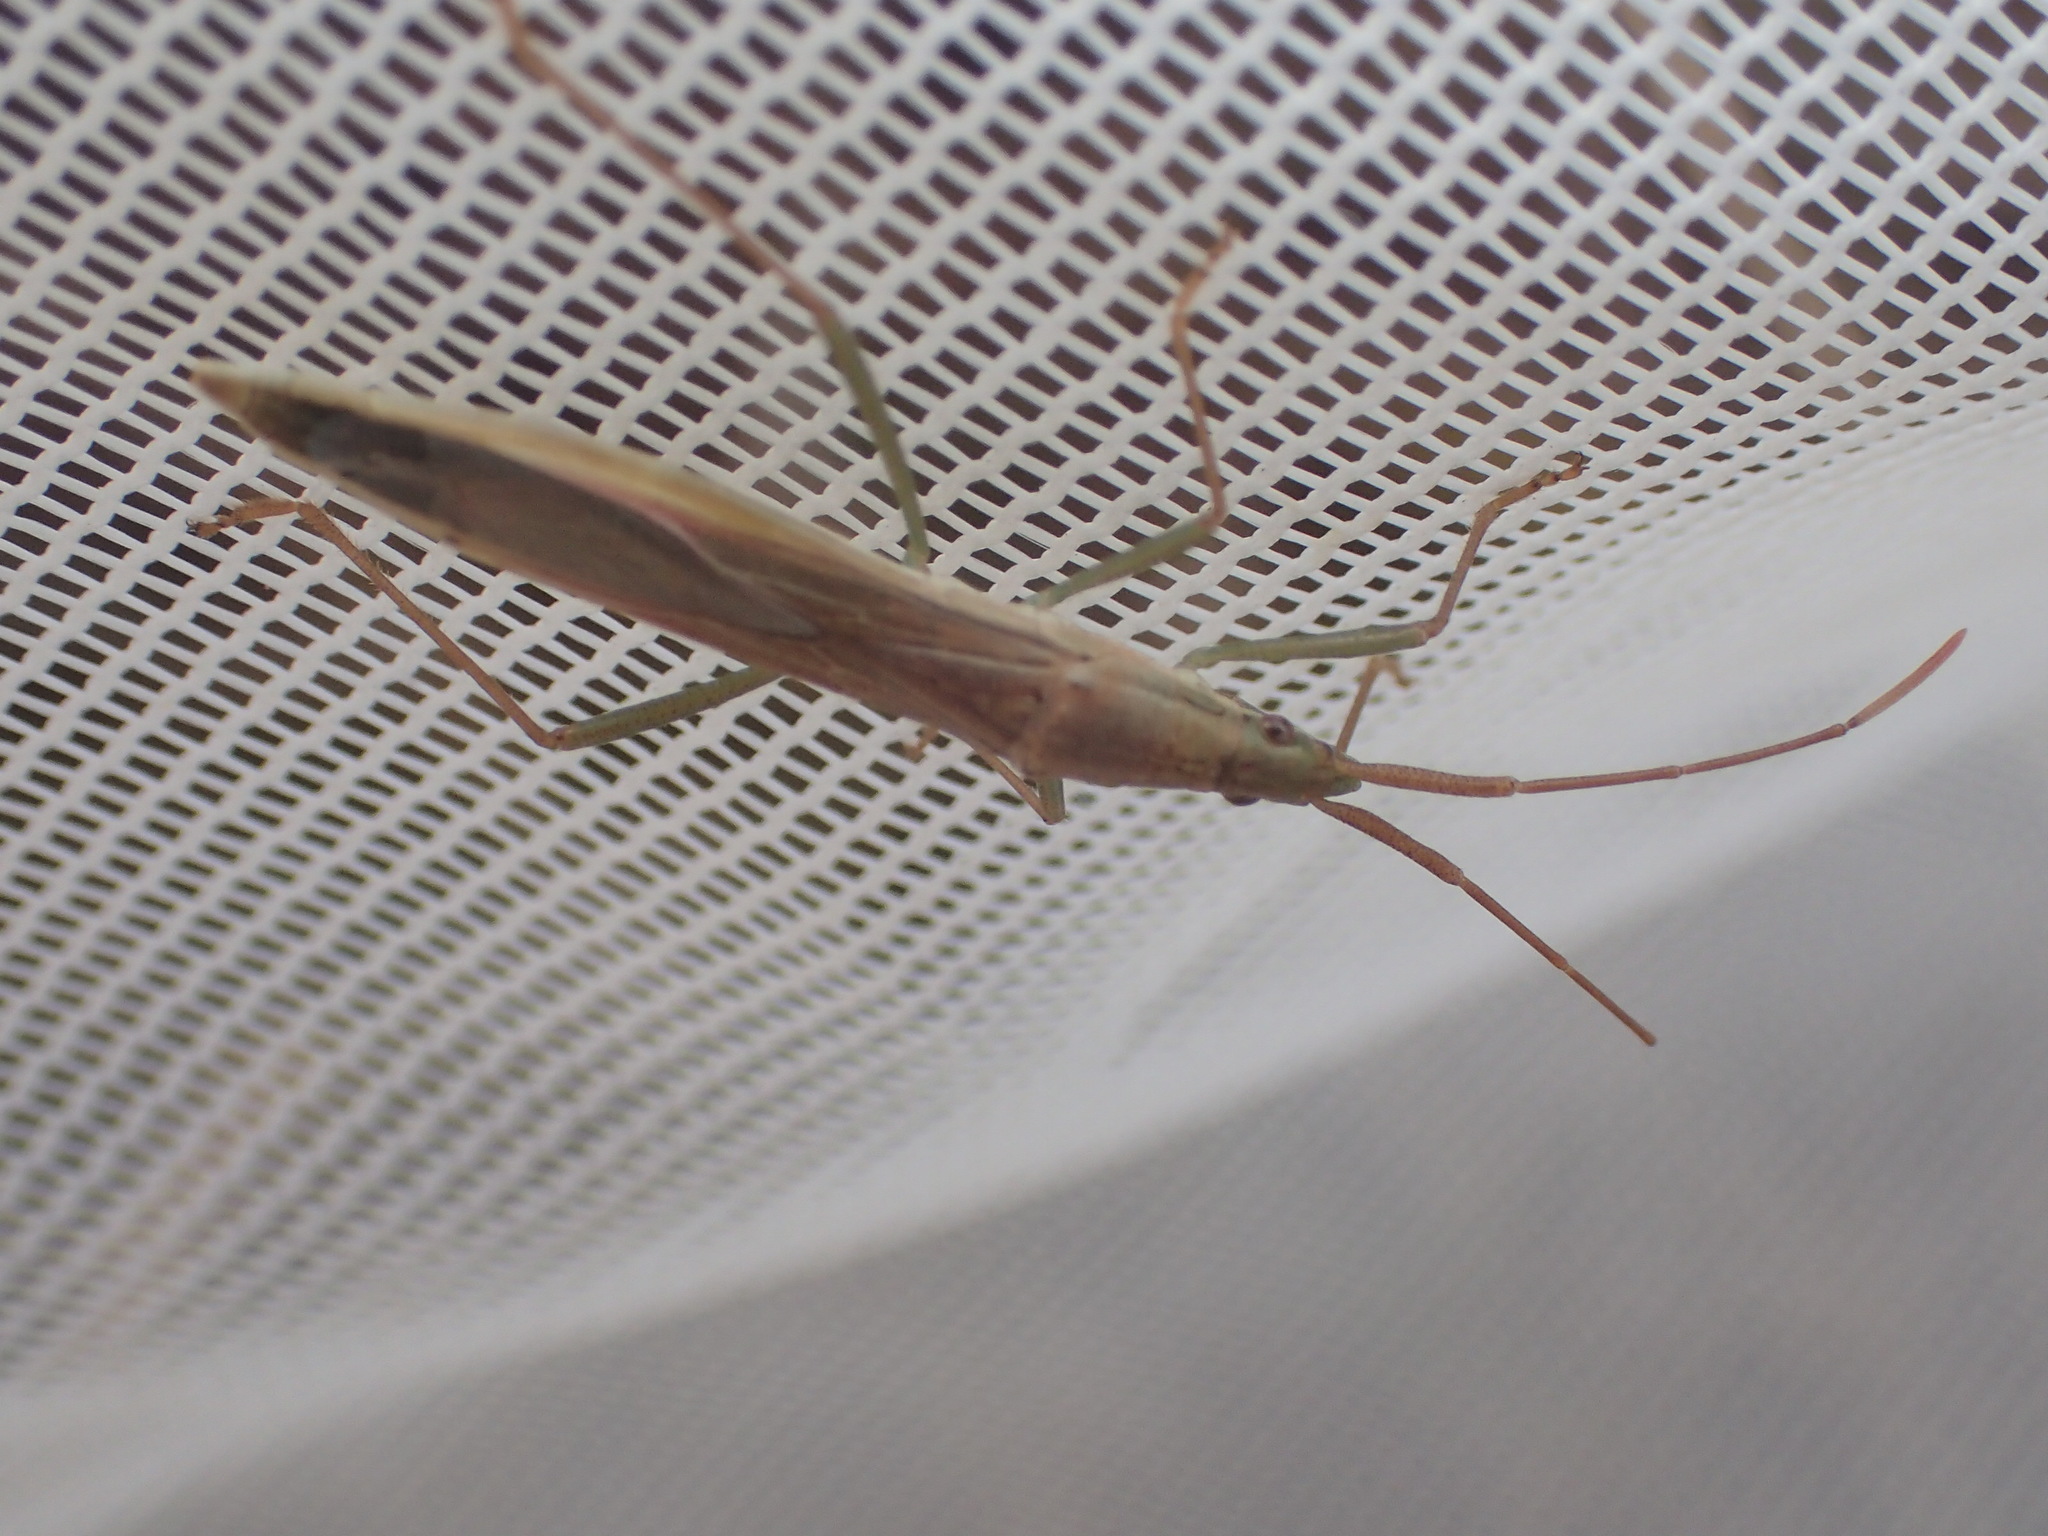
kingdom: Animalia
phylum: Arthropoda
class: Insecta
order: Hemiptera
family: Alydidae
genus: Mutusca
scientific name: Mutusca brevicornis
